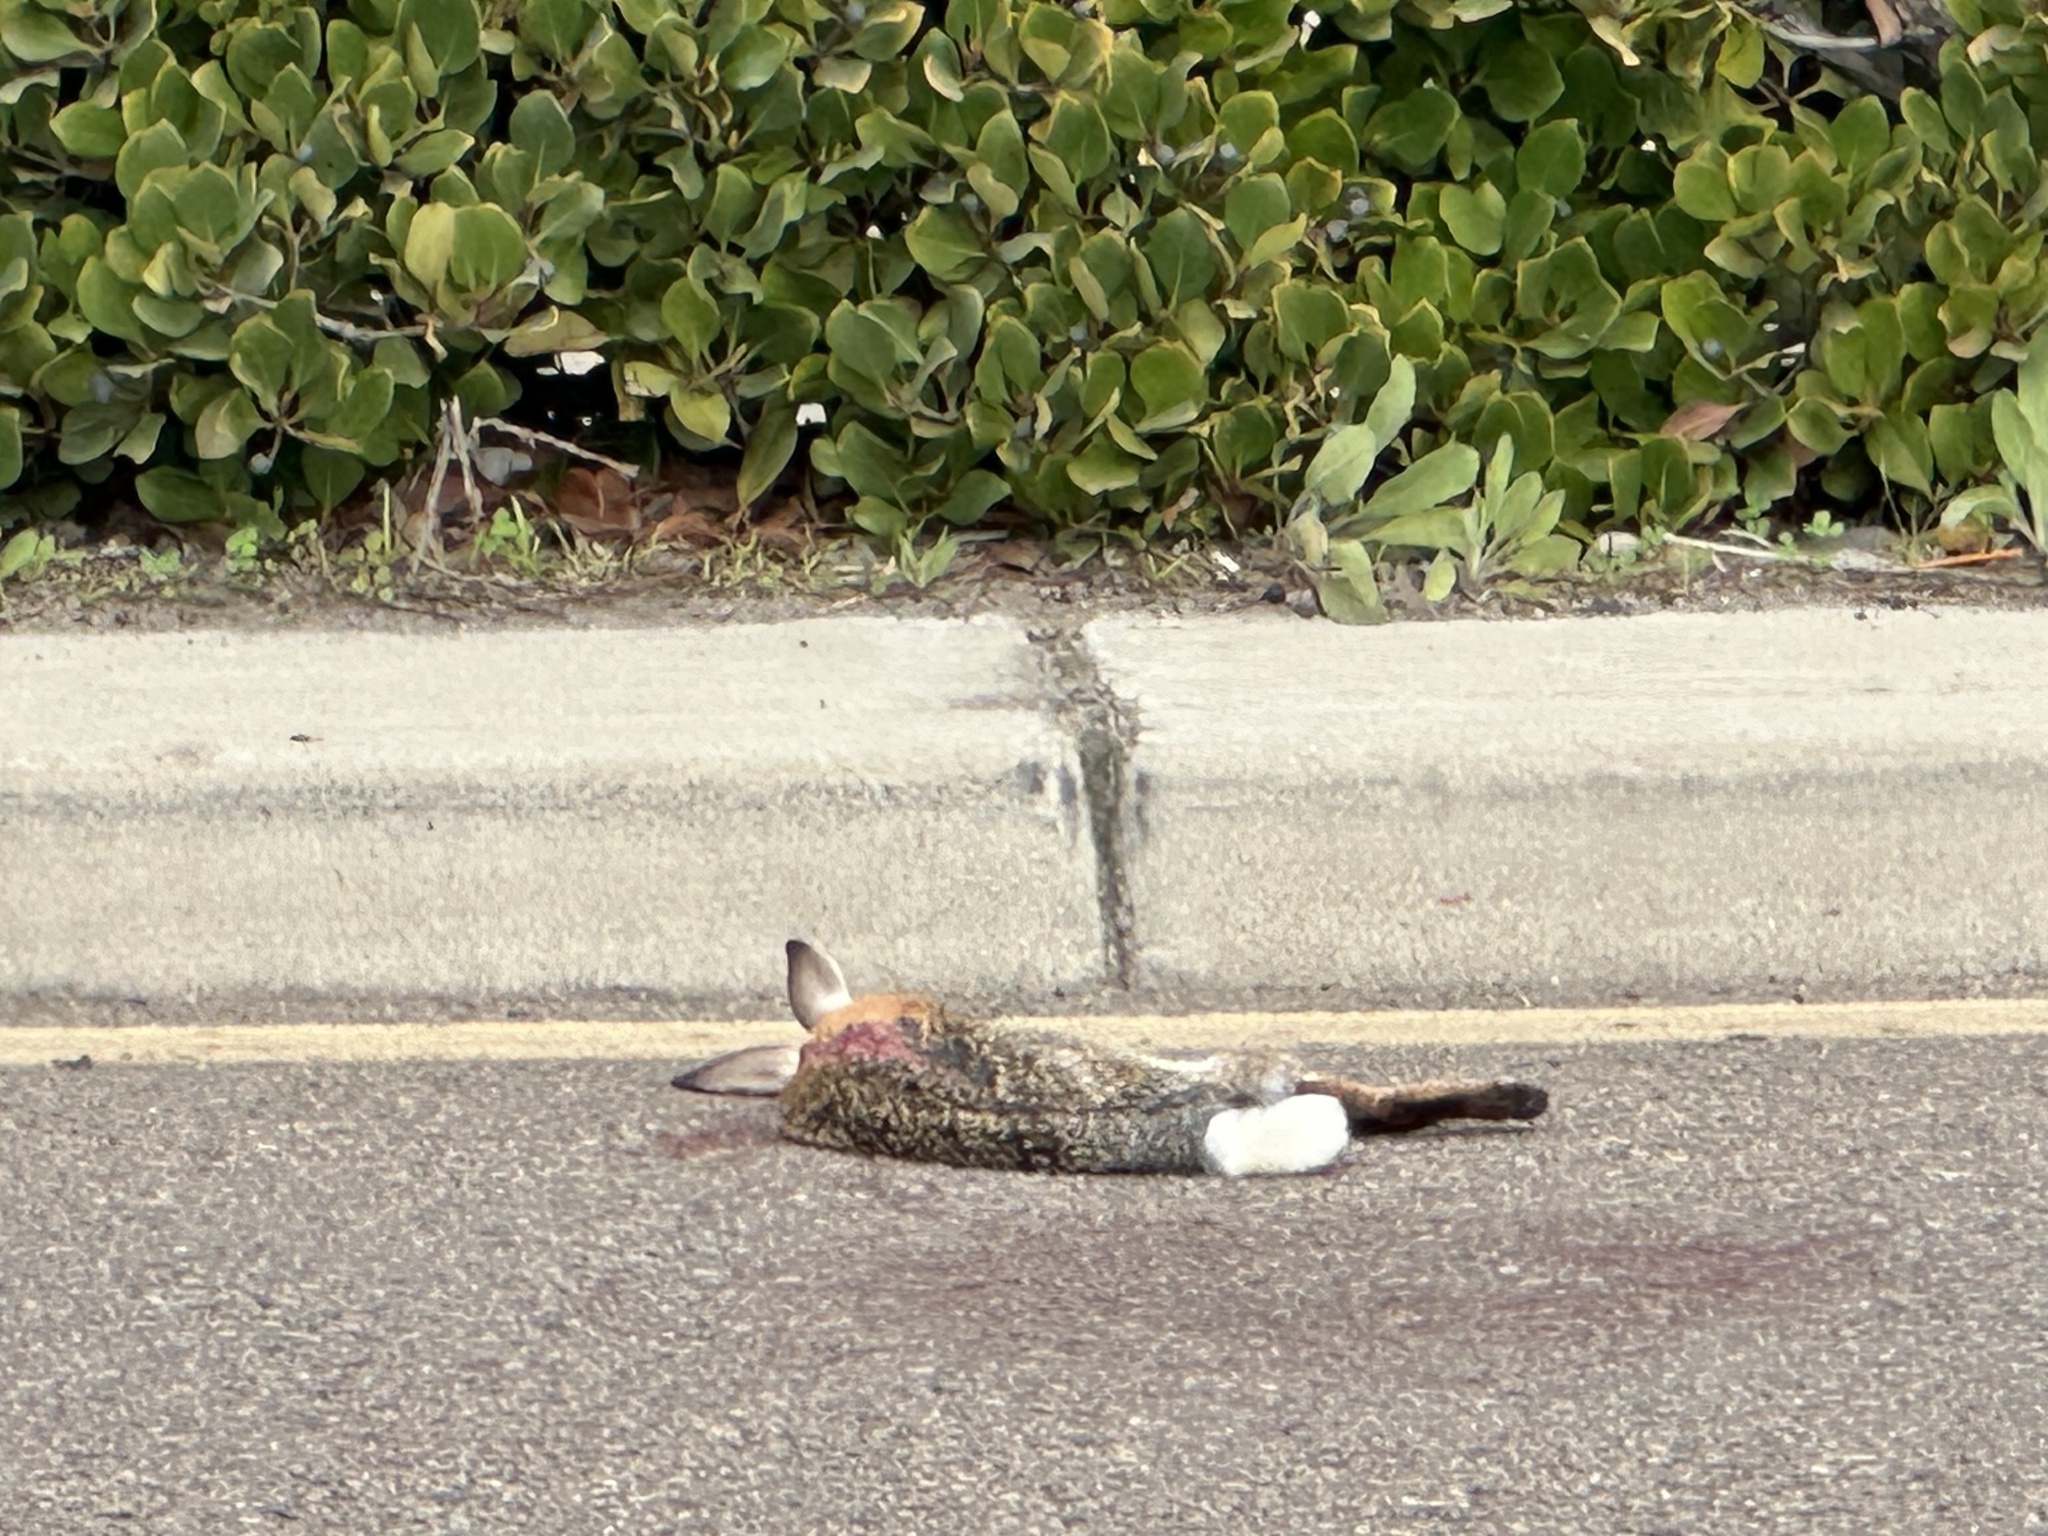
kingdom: Animalia
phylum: Chordata
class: Mammalia
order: Lagomorpha
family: Leporidae
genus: Sylvilagus
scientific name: Sylvilagus audubonii
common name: Desert cottontail
